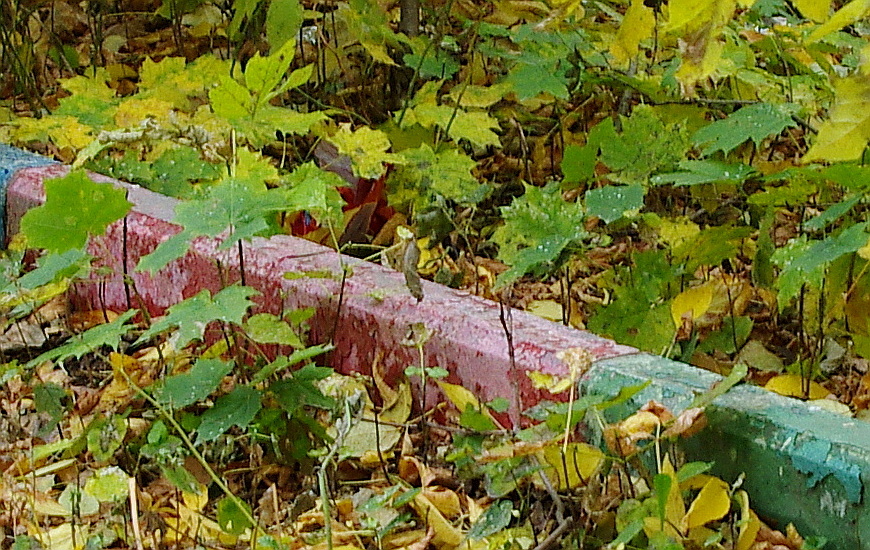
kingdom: Plantae
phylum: Tracheophyta
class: Magnoliopsida
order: Sapindales
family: Sapindaceae
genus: Acer
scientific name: Acer platanoides
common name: Norway maple
